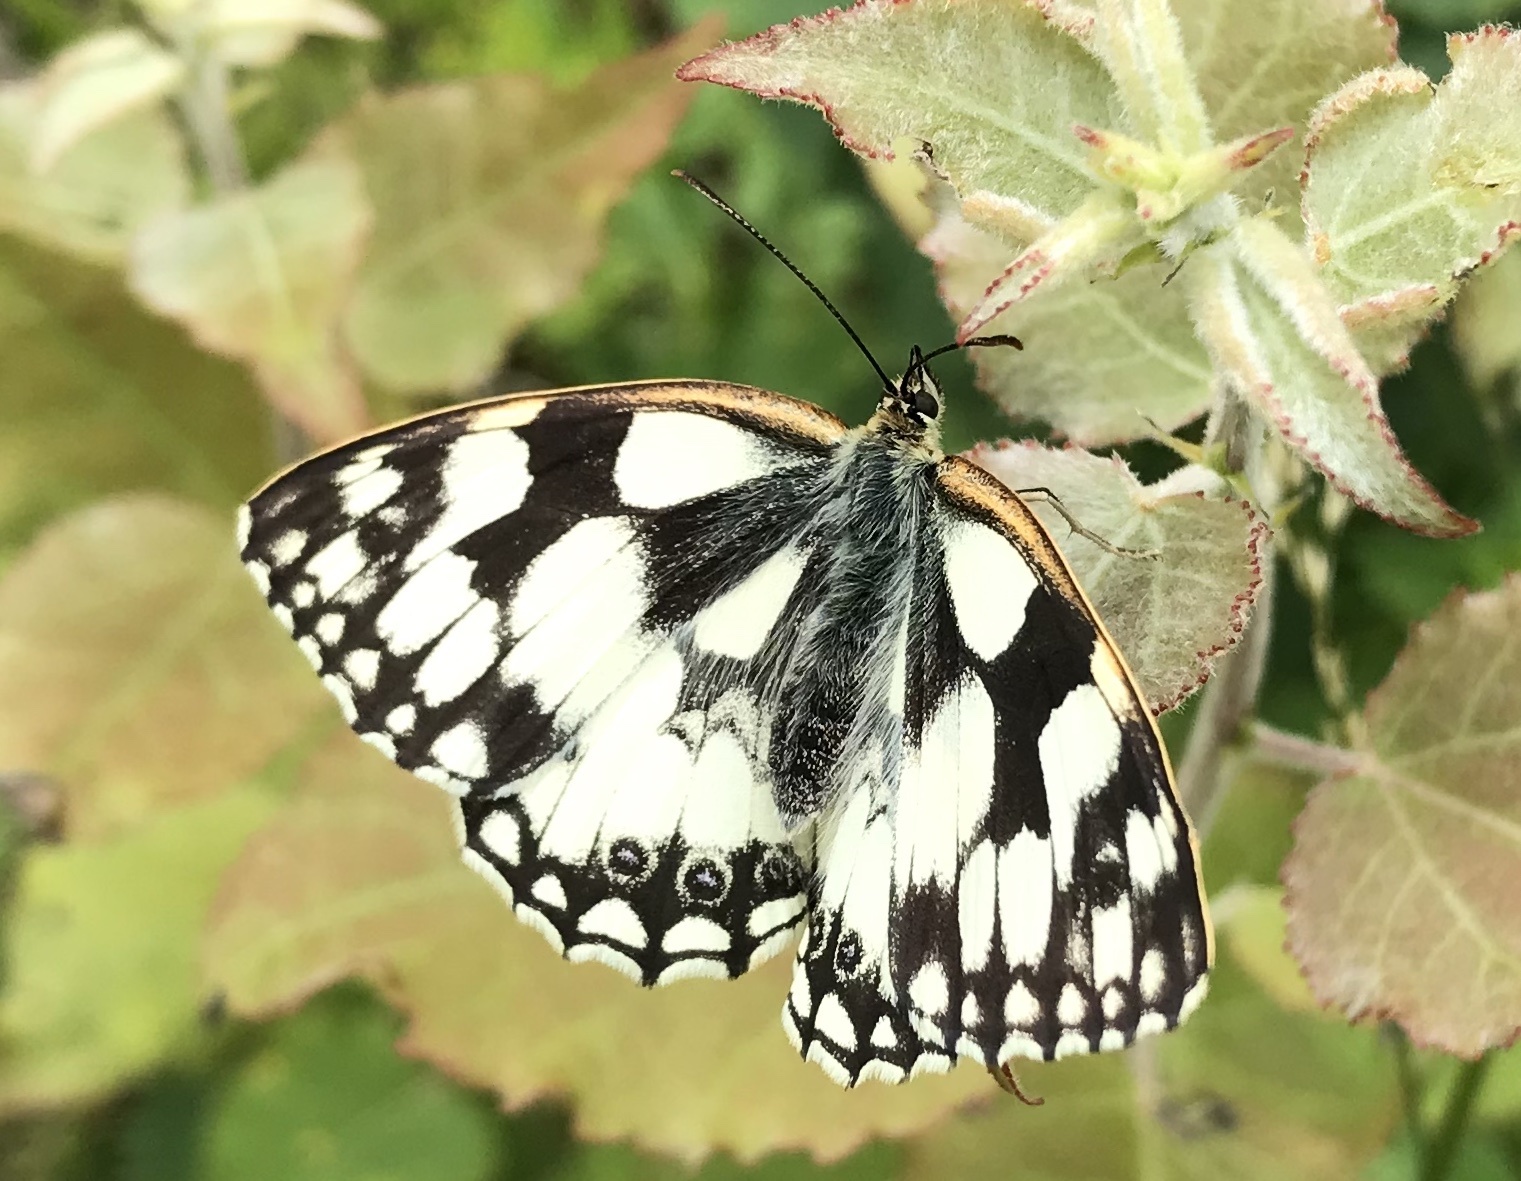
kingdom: Animalia
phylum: Arthropoda
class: Insecta
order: Lepidoptera
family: Nymphalidae
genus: Melanargia
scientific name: Melanargia galathea
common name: Marbled white
